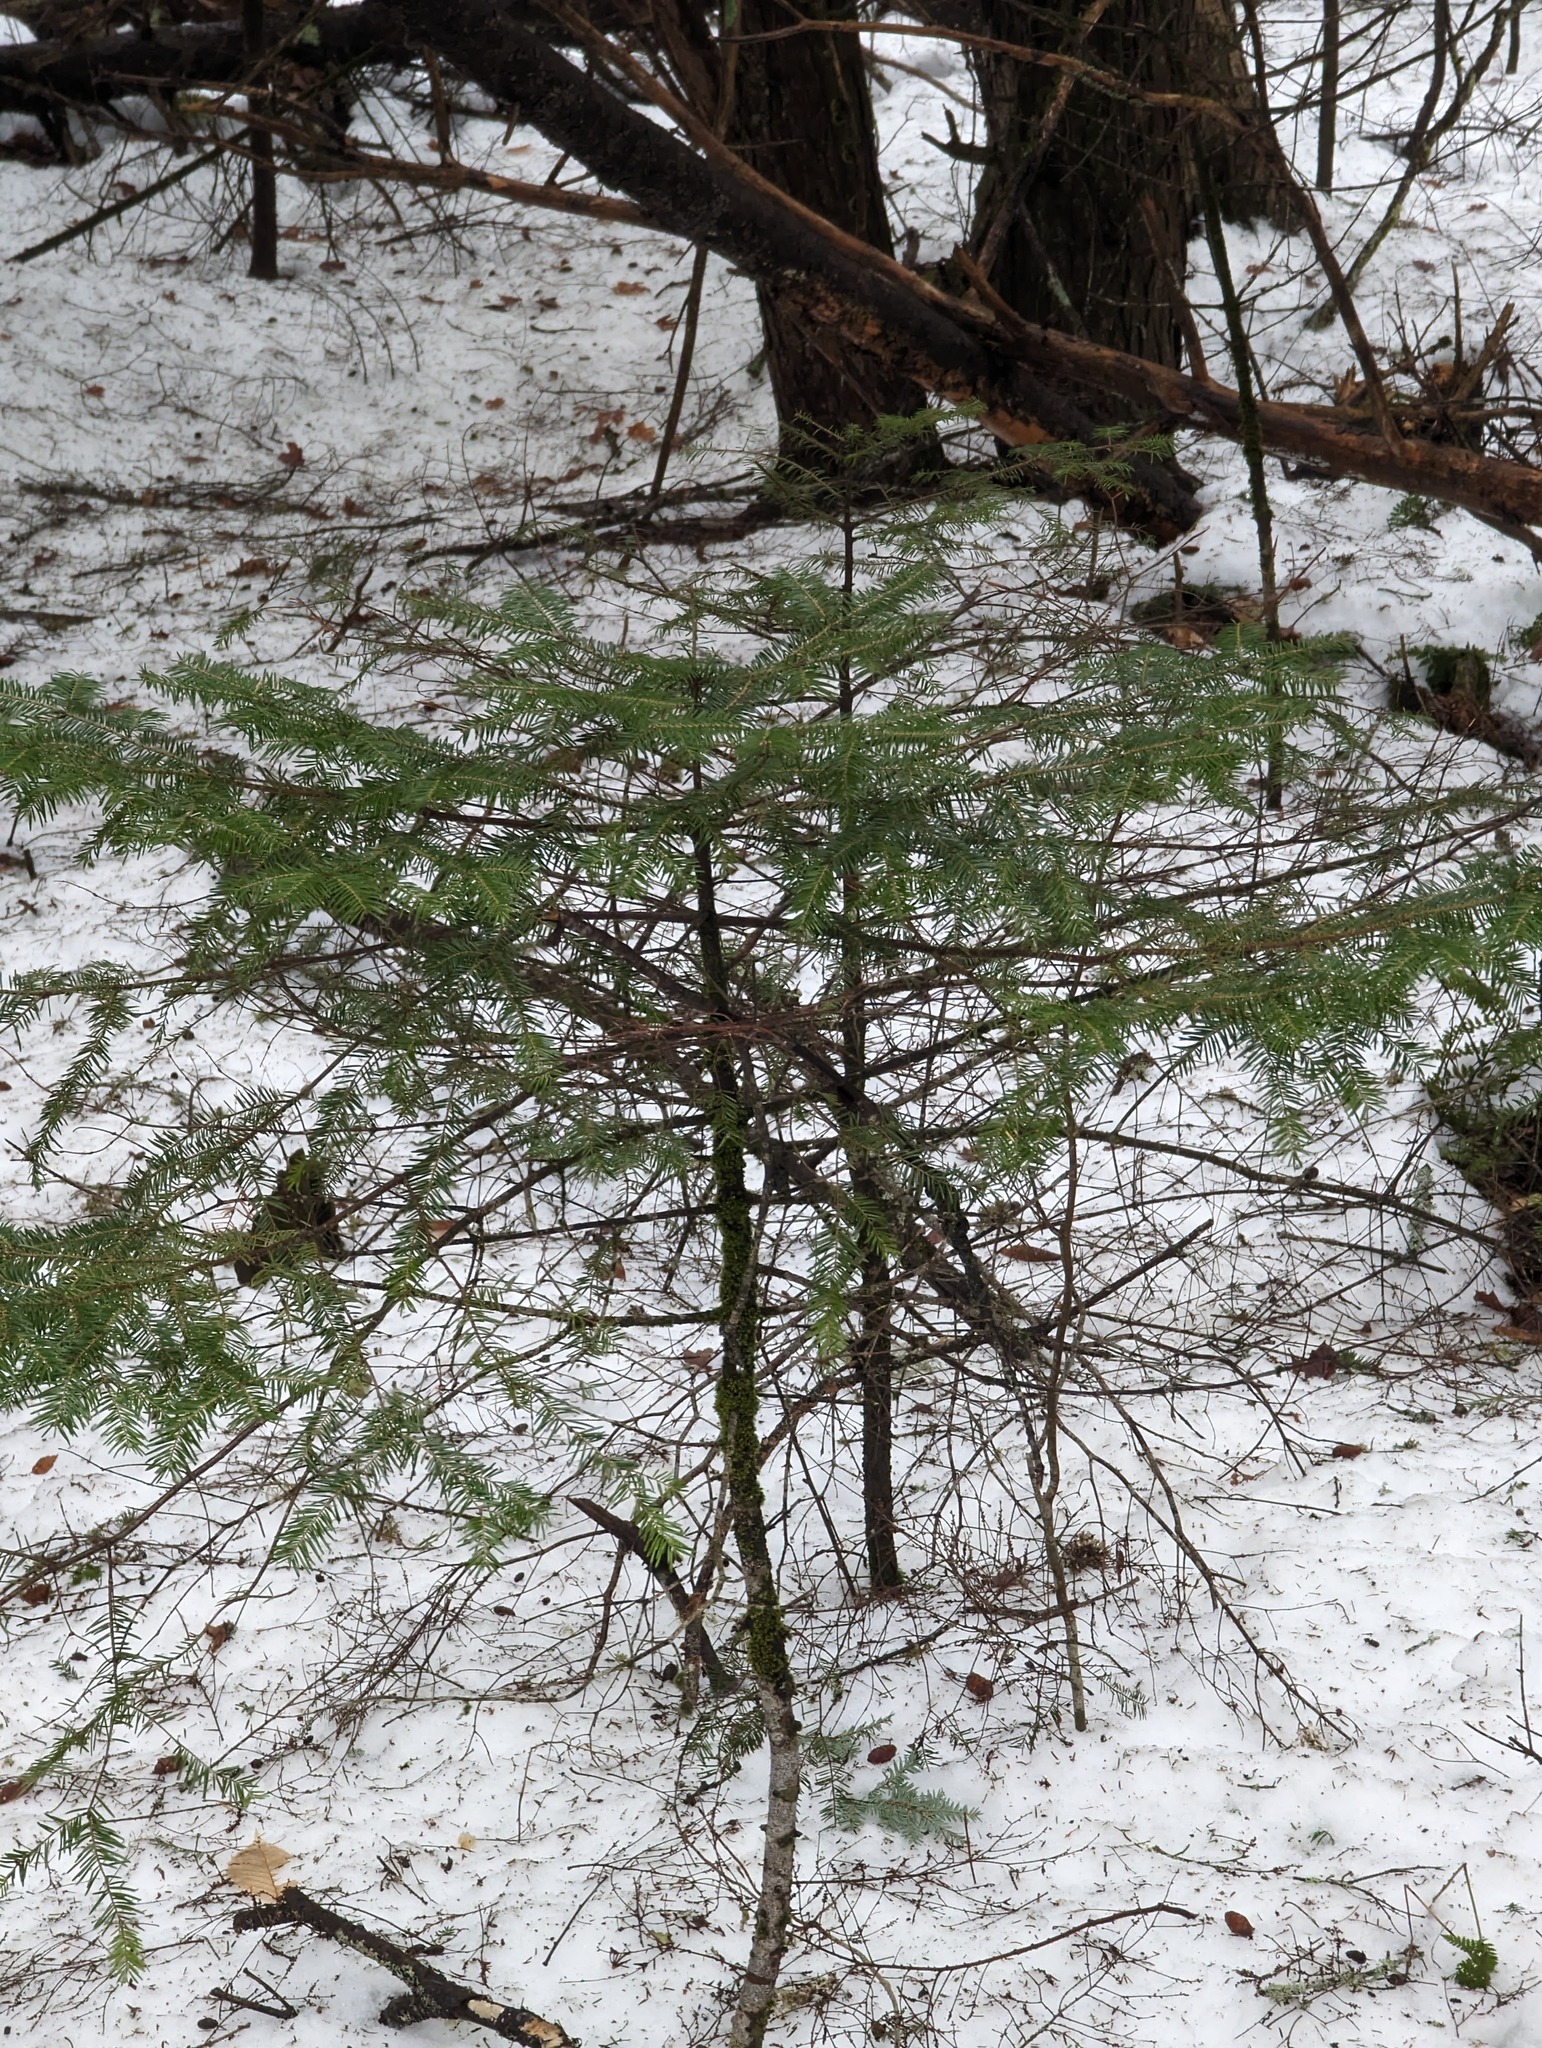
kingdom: Plantae
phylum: Tracheophyta
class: Pinopsida
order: Pinales
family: Pinaceae
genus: Abies
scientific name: Abies balsamea
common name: Balsam fir
